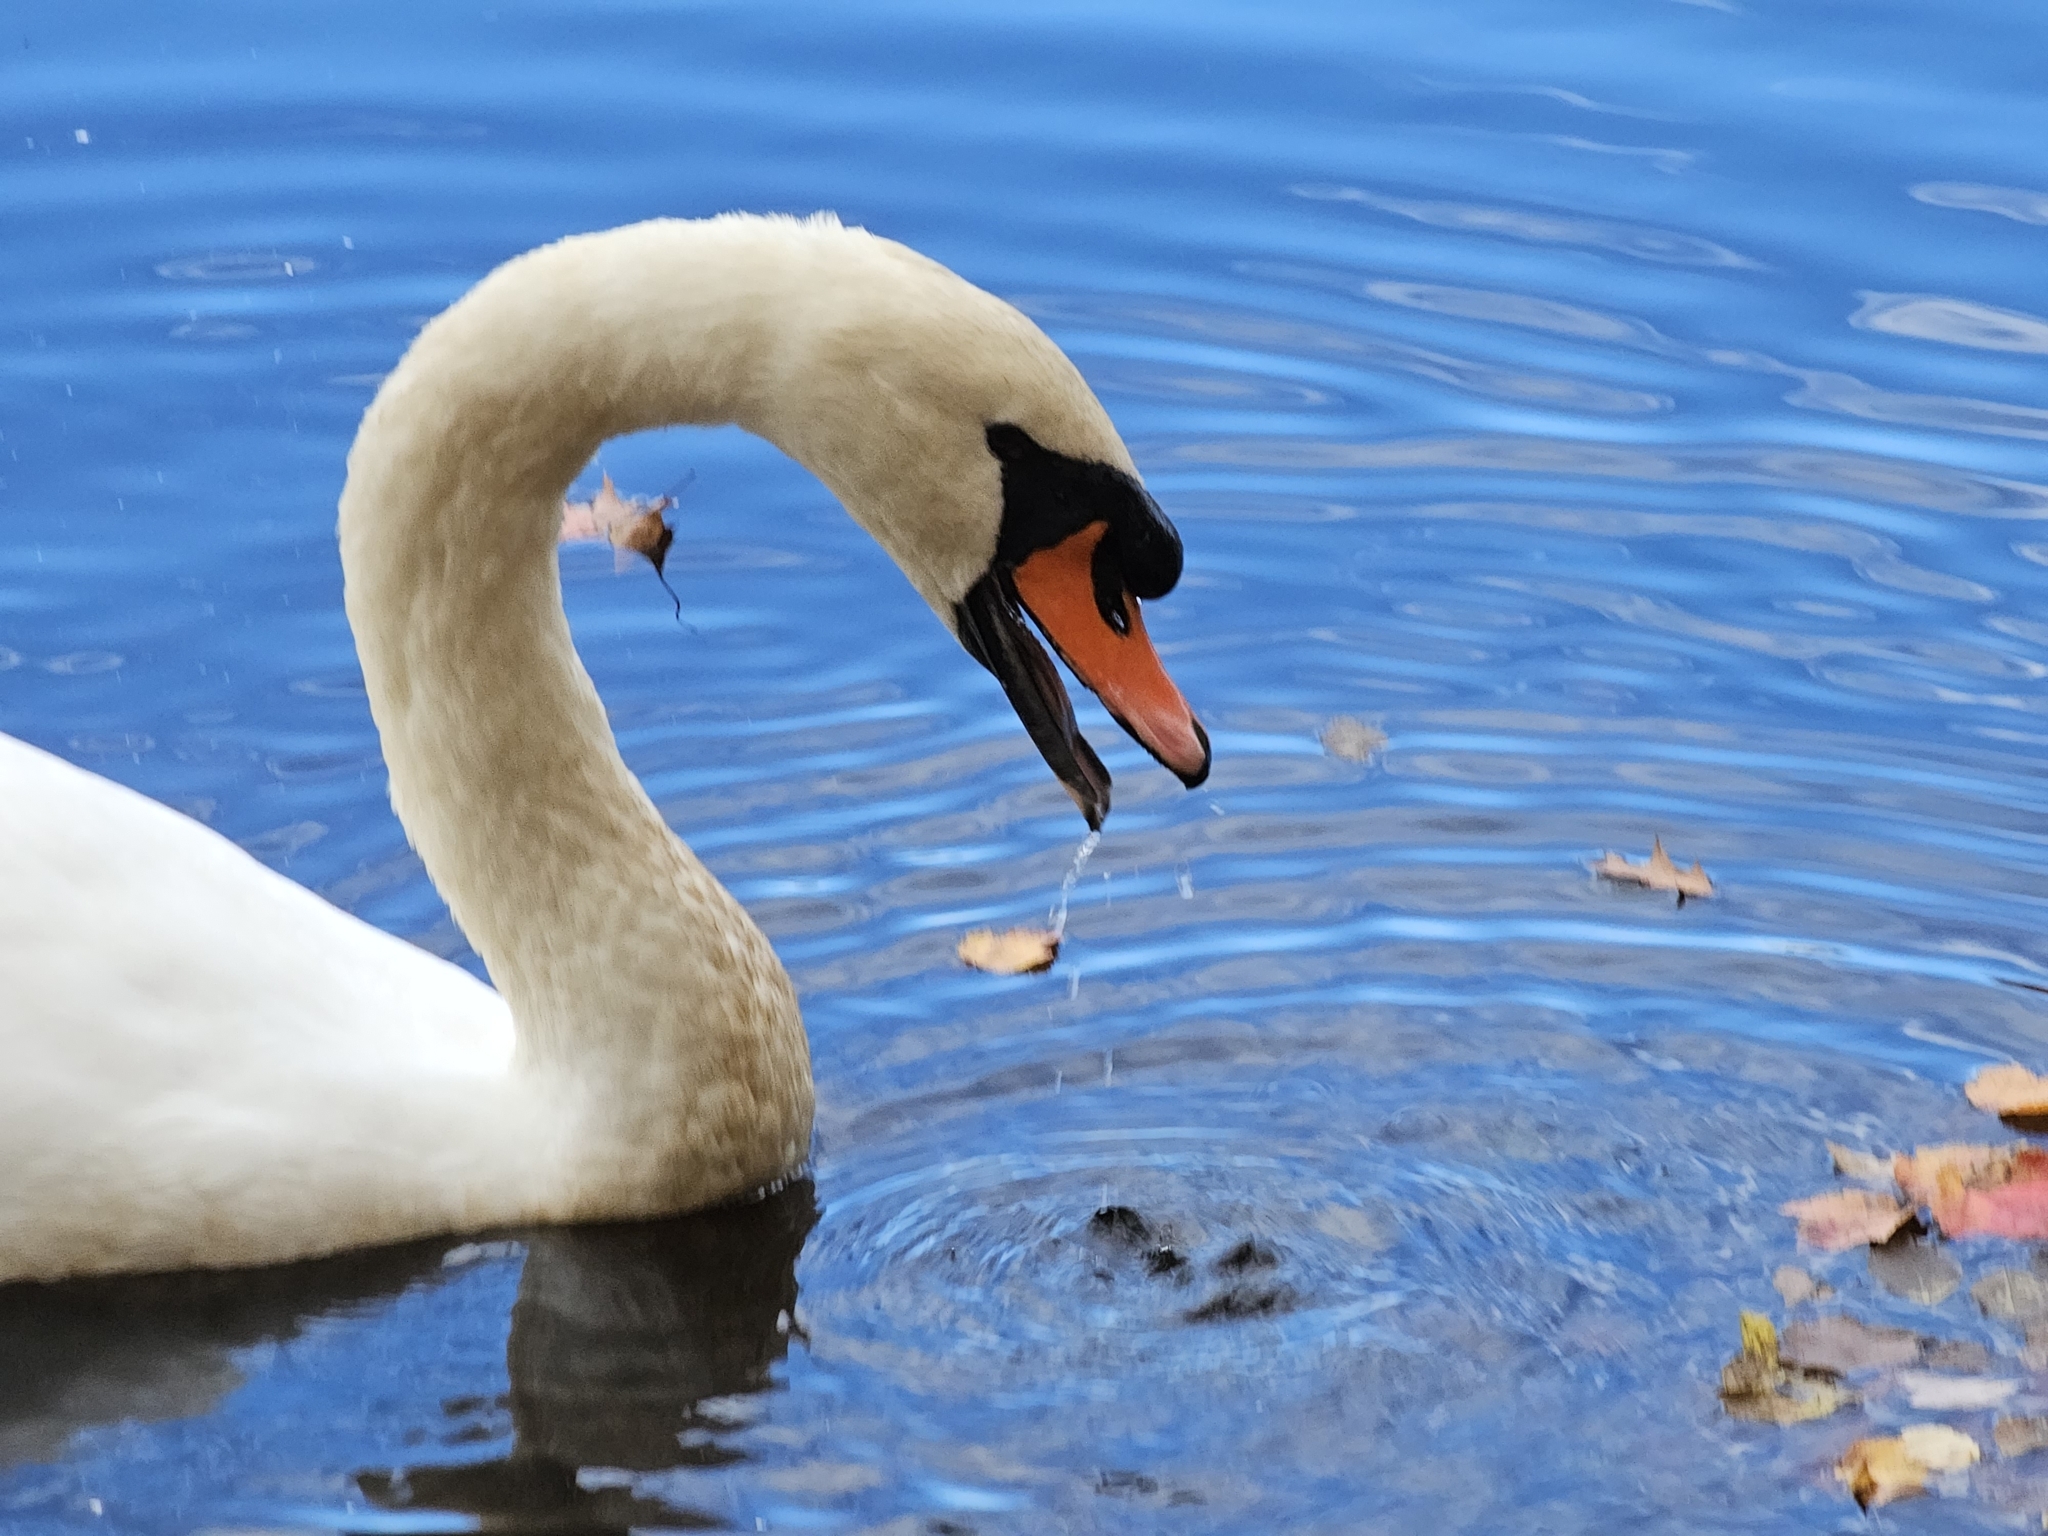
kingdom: Animalia
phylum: Chordata
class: Aves
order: Anseriformes
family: Anatidae
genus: Cygnus
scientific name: Cygnus olor
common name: Mute swan
